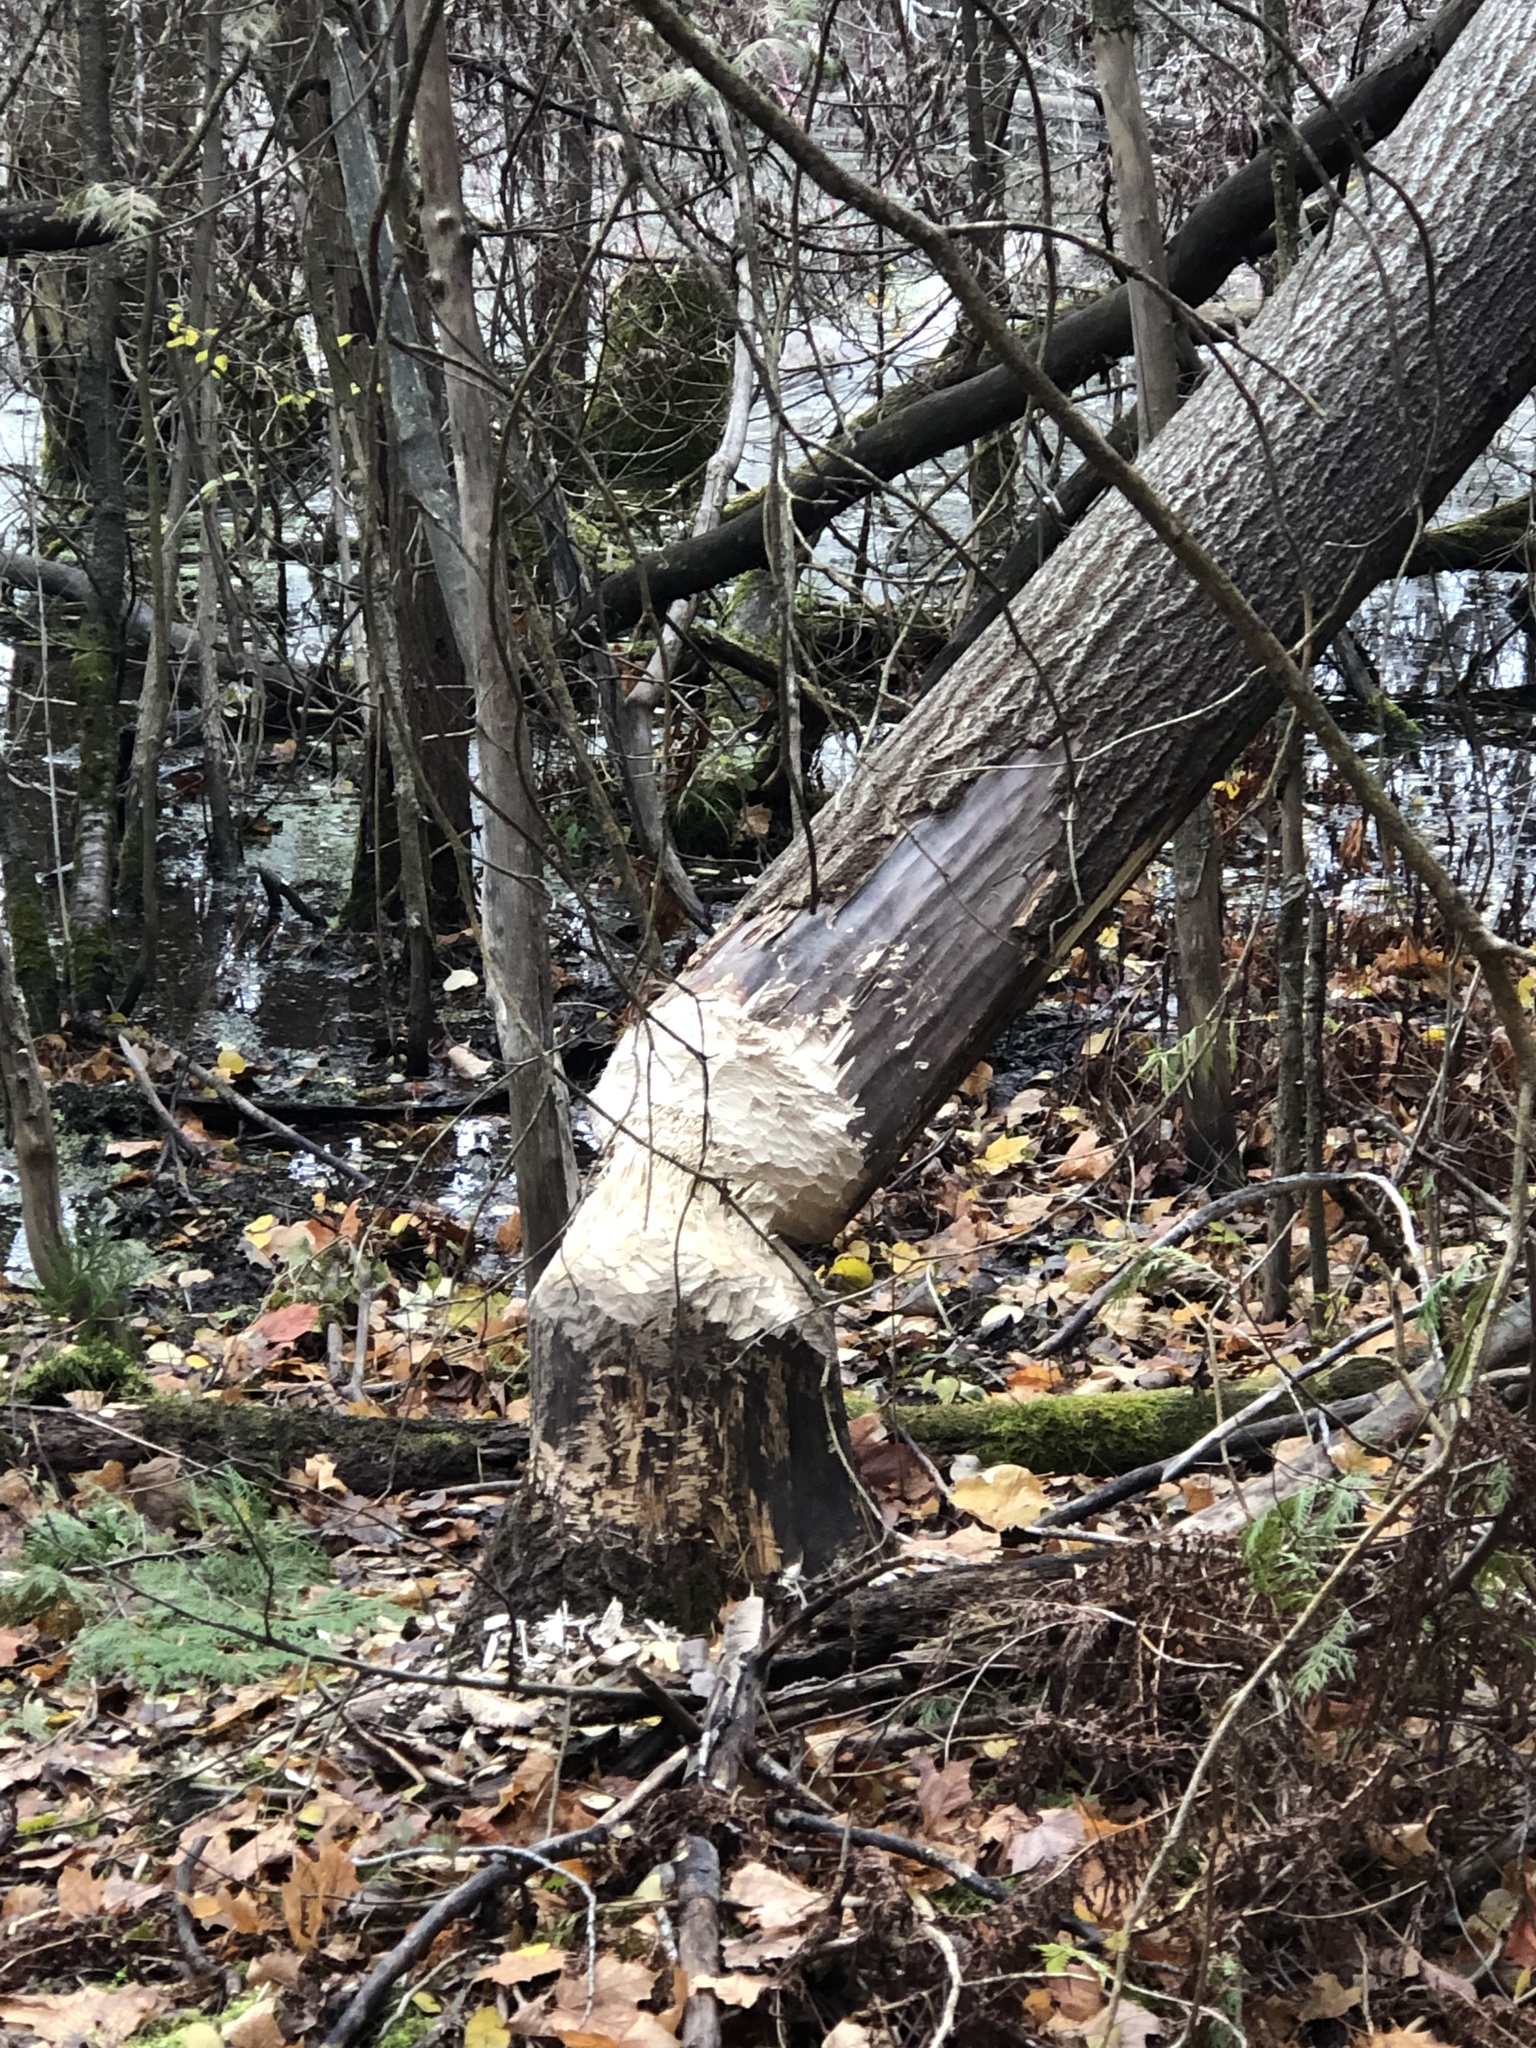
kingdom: Animalia
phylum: Chordata
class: Mammalia
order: Rodentia
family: Castoridae
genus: Castor
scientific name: Castor canadensis
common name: American beaver
